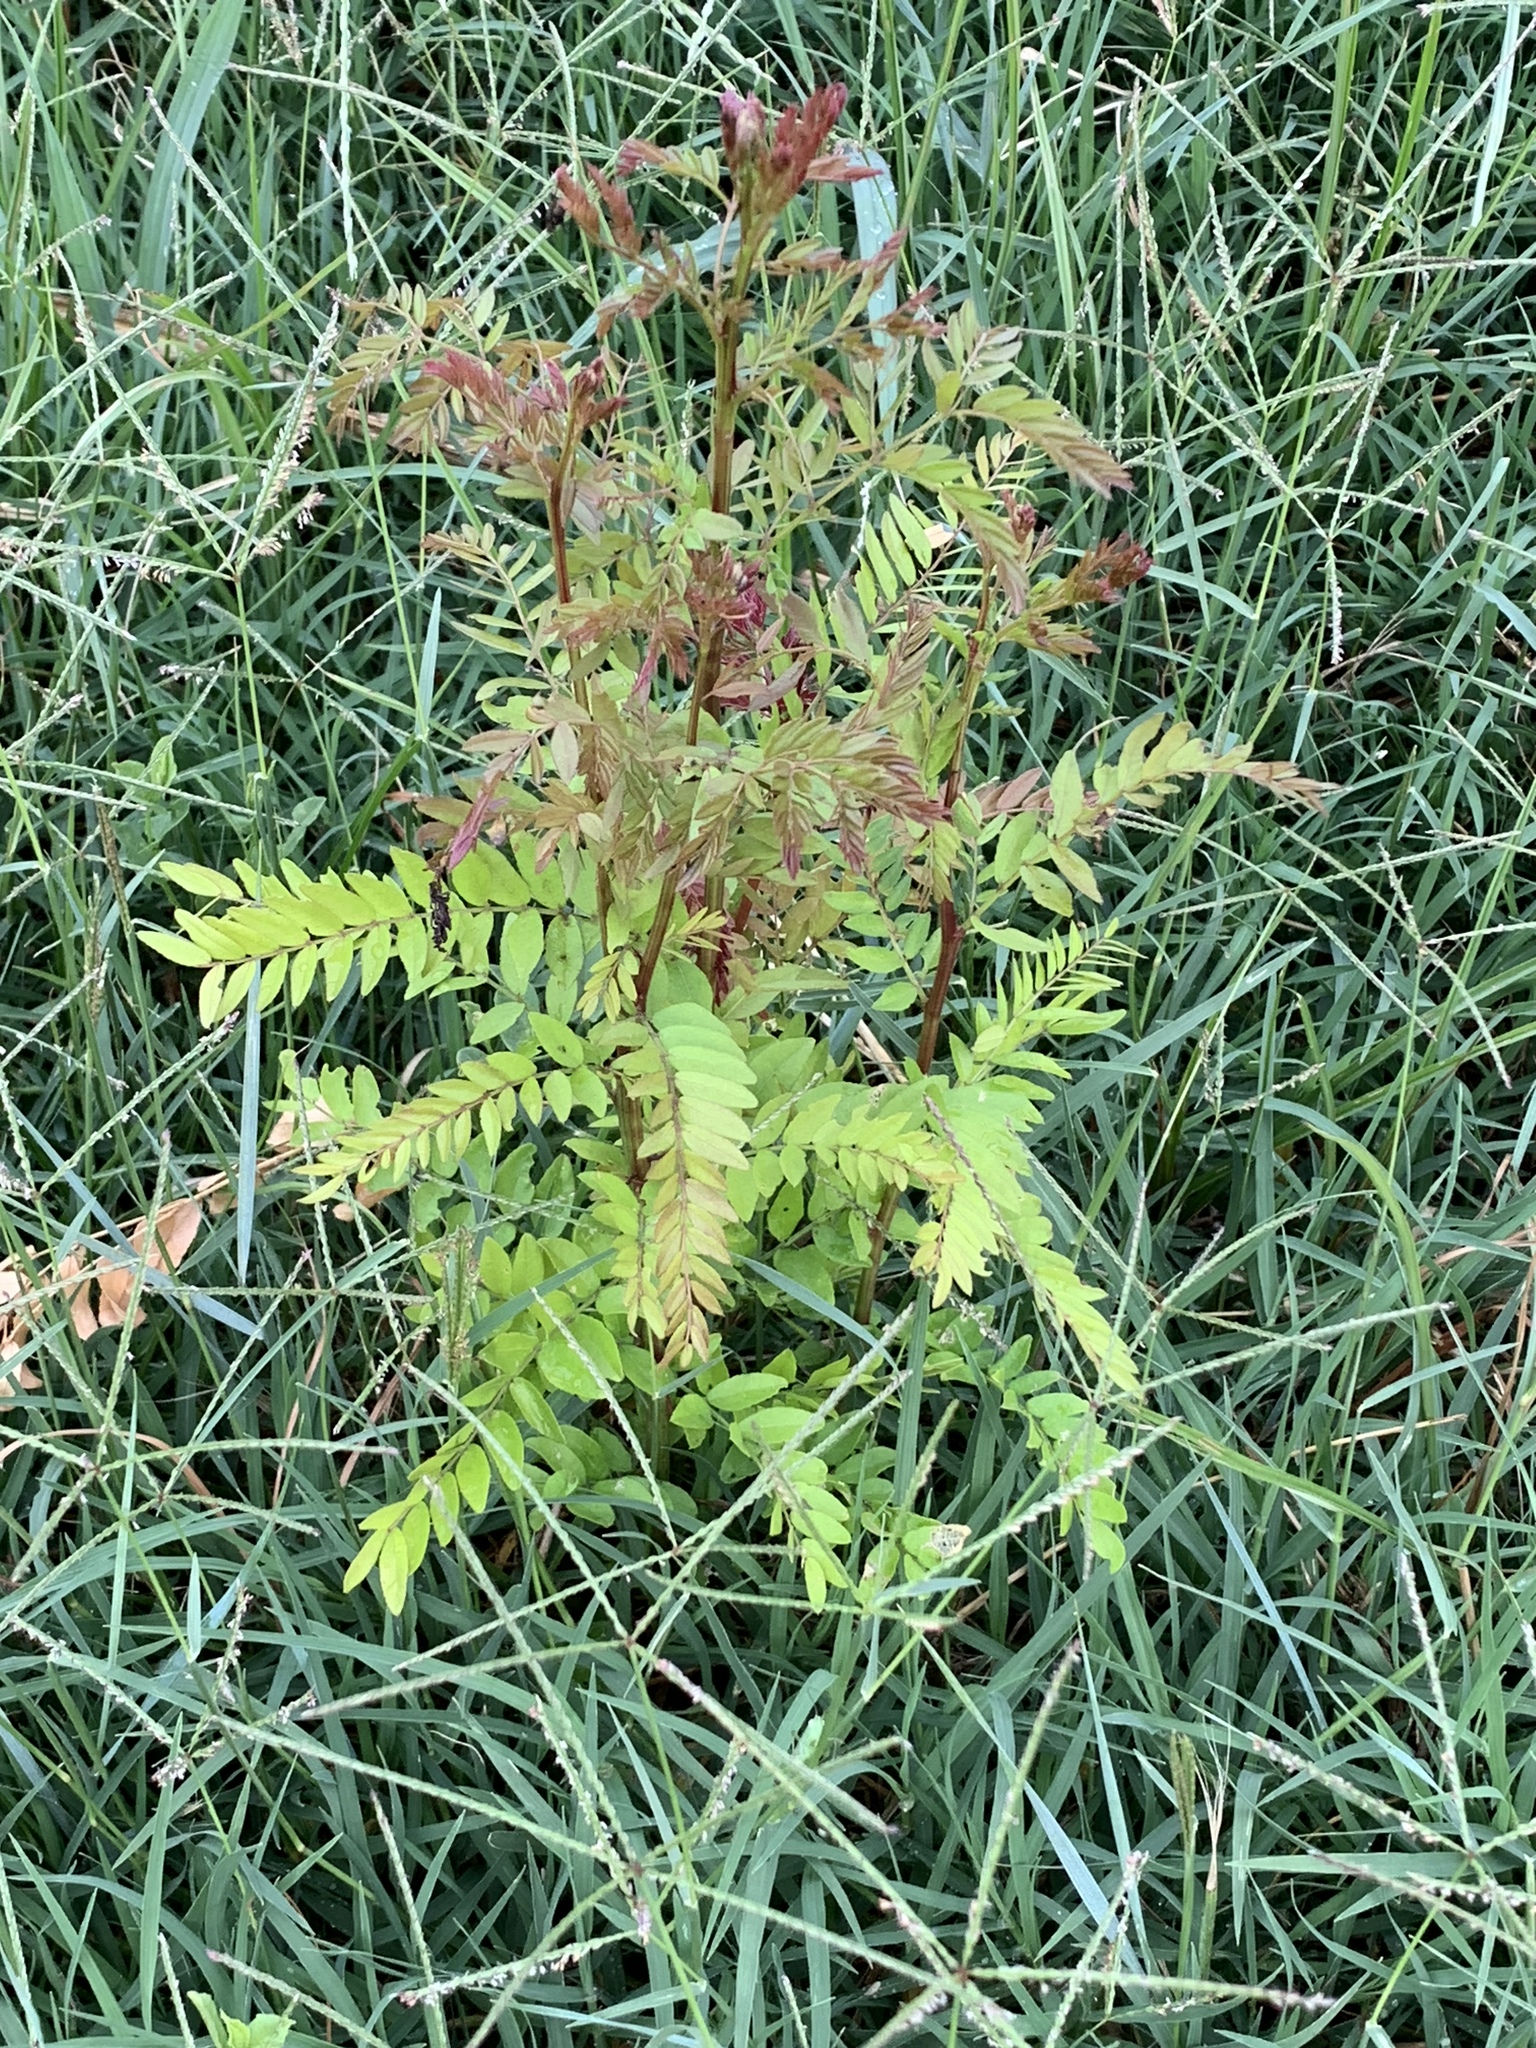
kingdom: Plantae
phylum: Tracheophyta
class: Magnoliopsida
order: Fabales
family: Fabaceae
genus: Gleditsia
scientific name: Gleditsia triacanthos
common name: Common honeylocust
